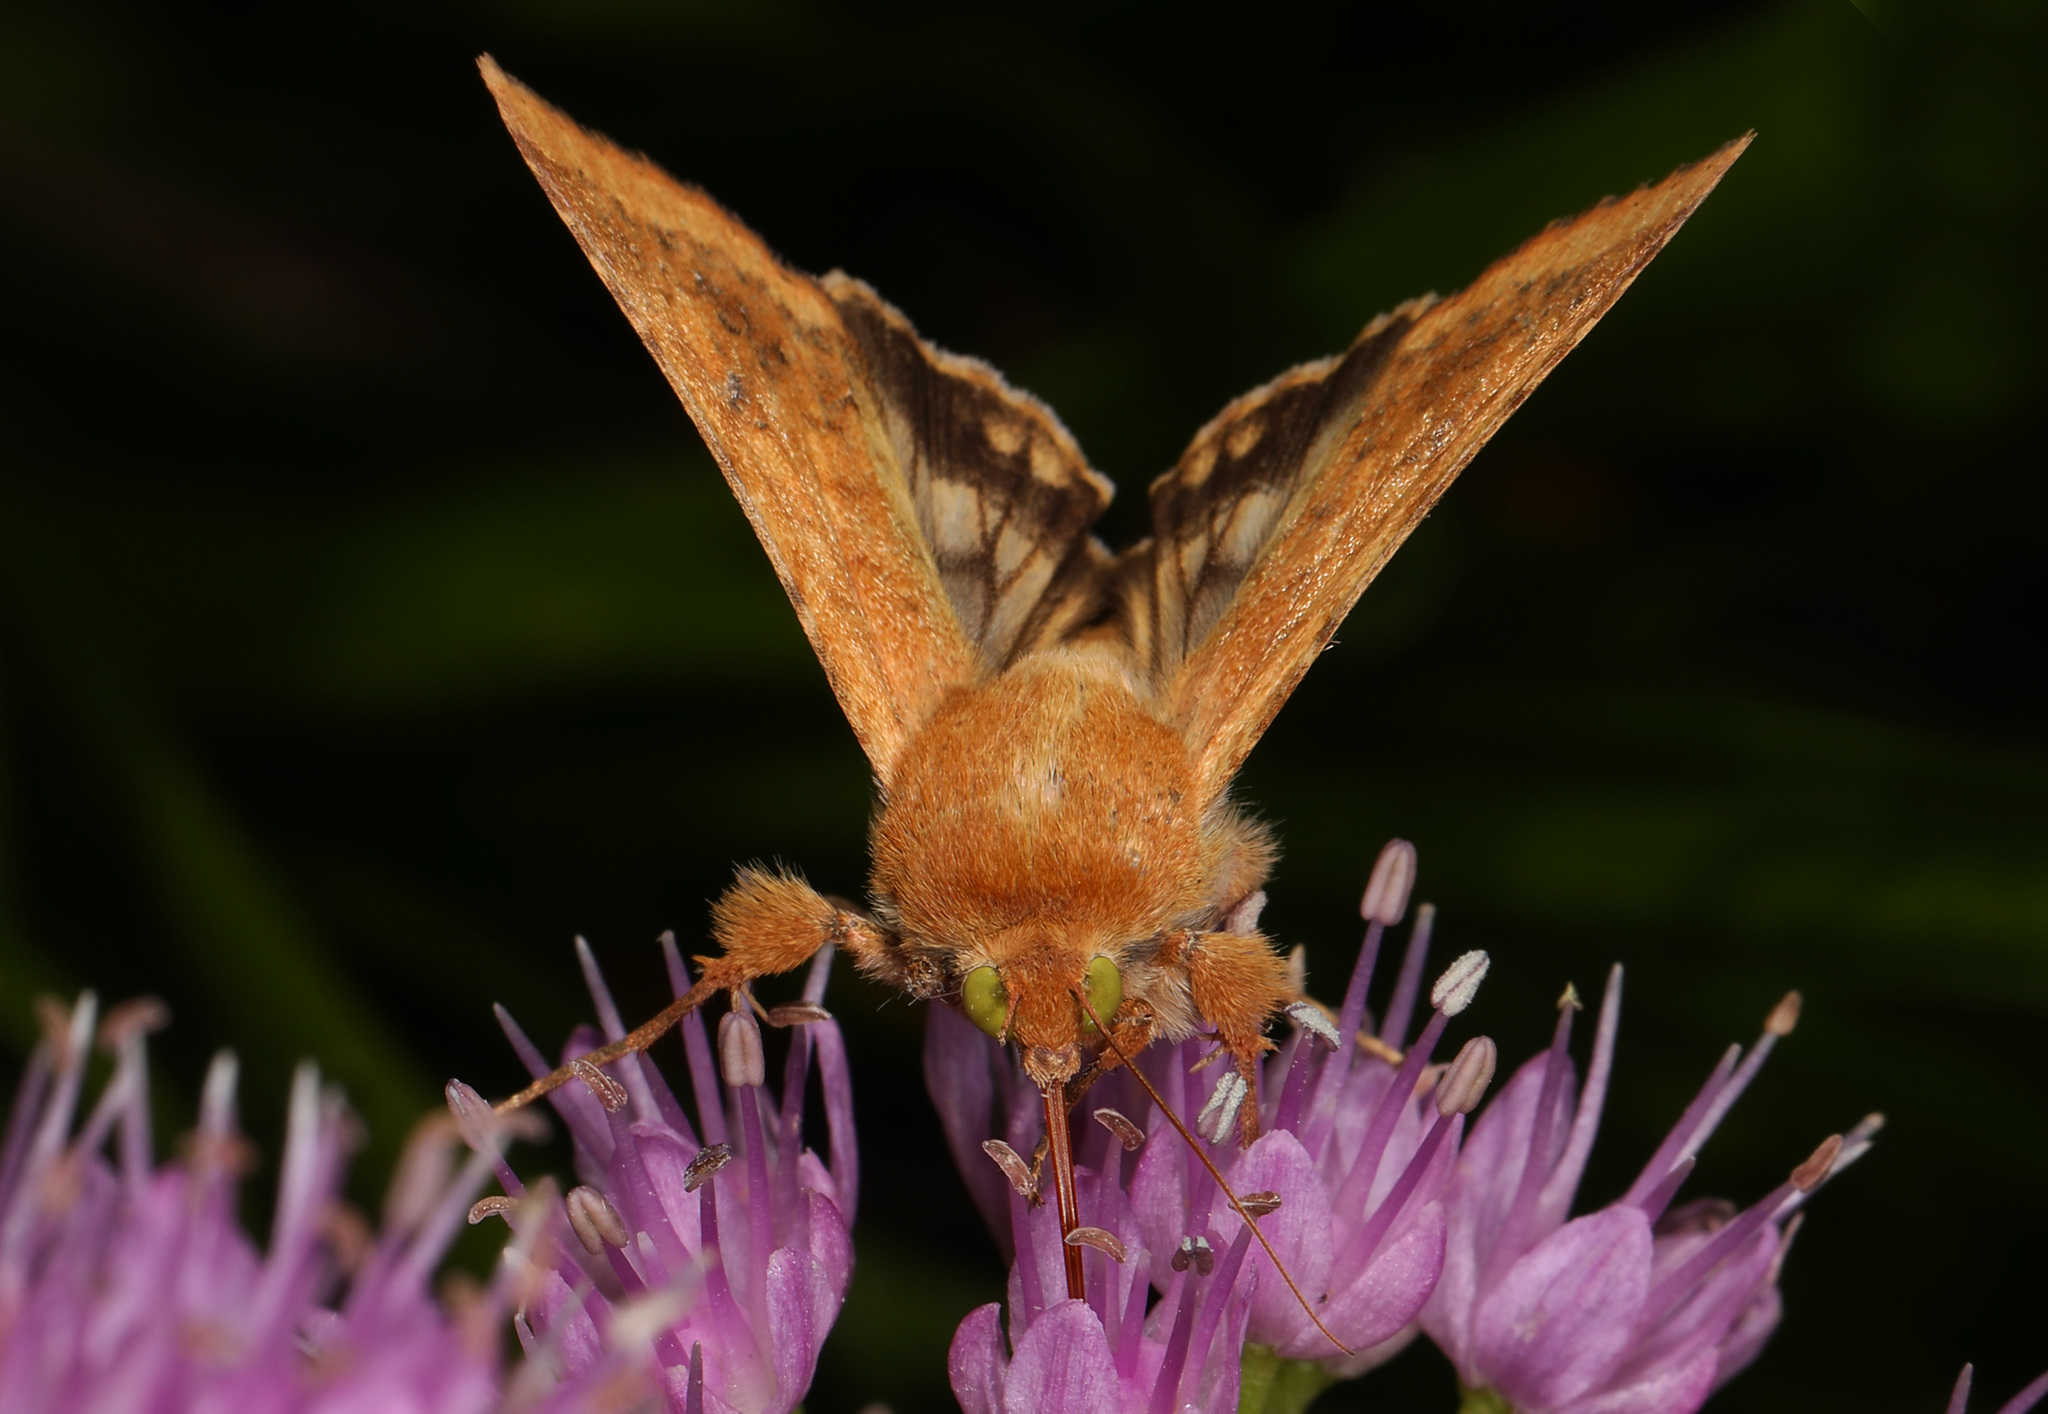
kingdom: Animalia
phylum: Arthropoda
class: Insecta
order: Lepidoptera
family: Noctuidae
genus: Helicoverpa
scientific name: Helicoverpa zea
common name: Bollworm
